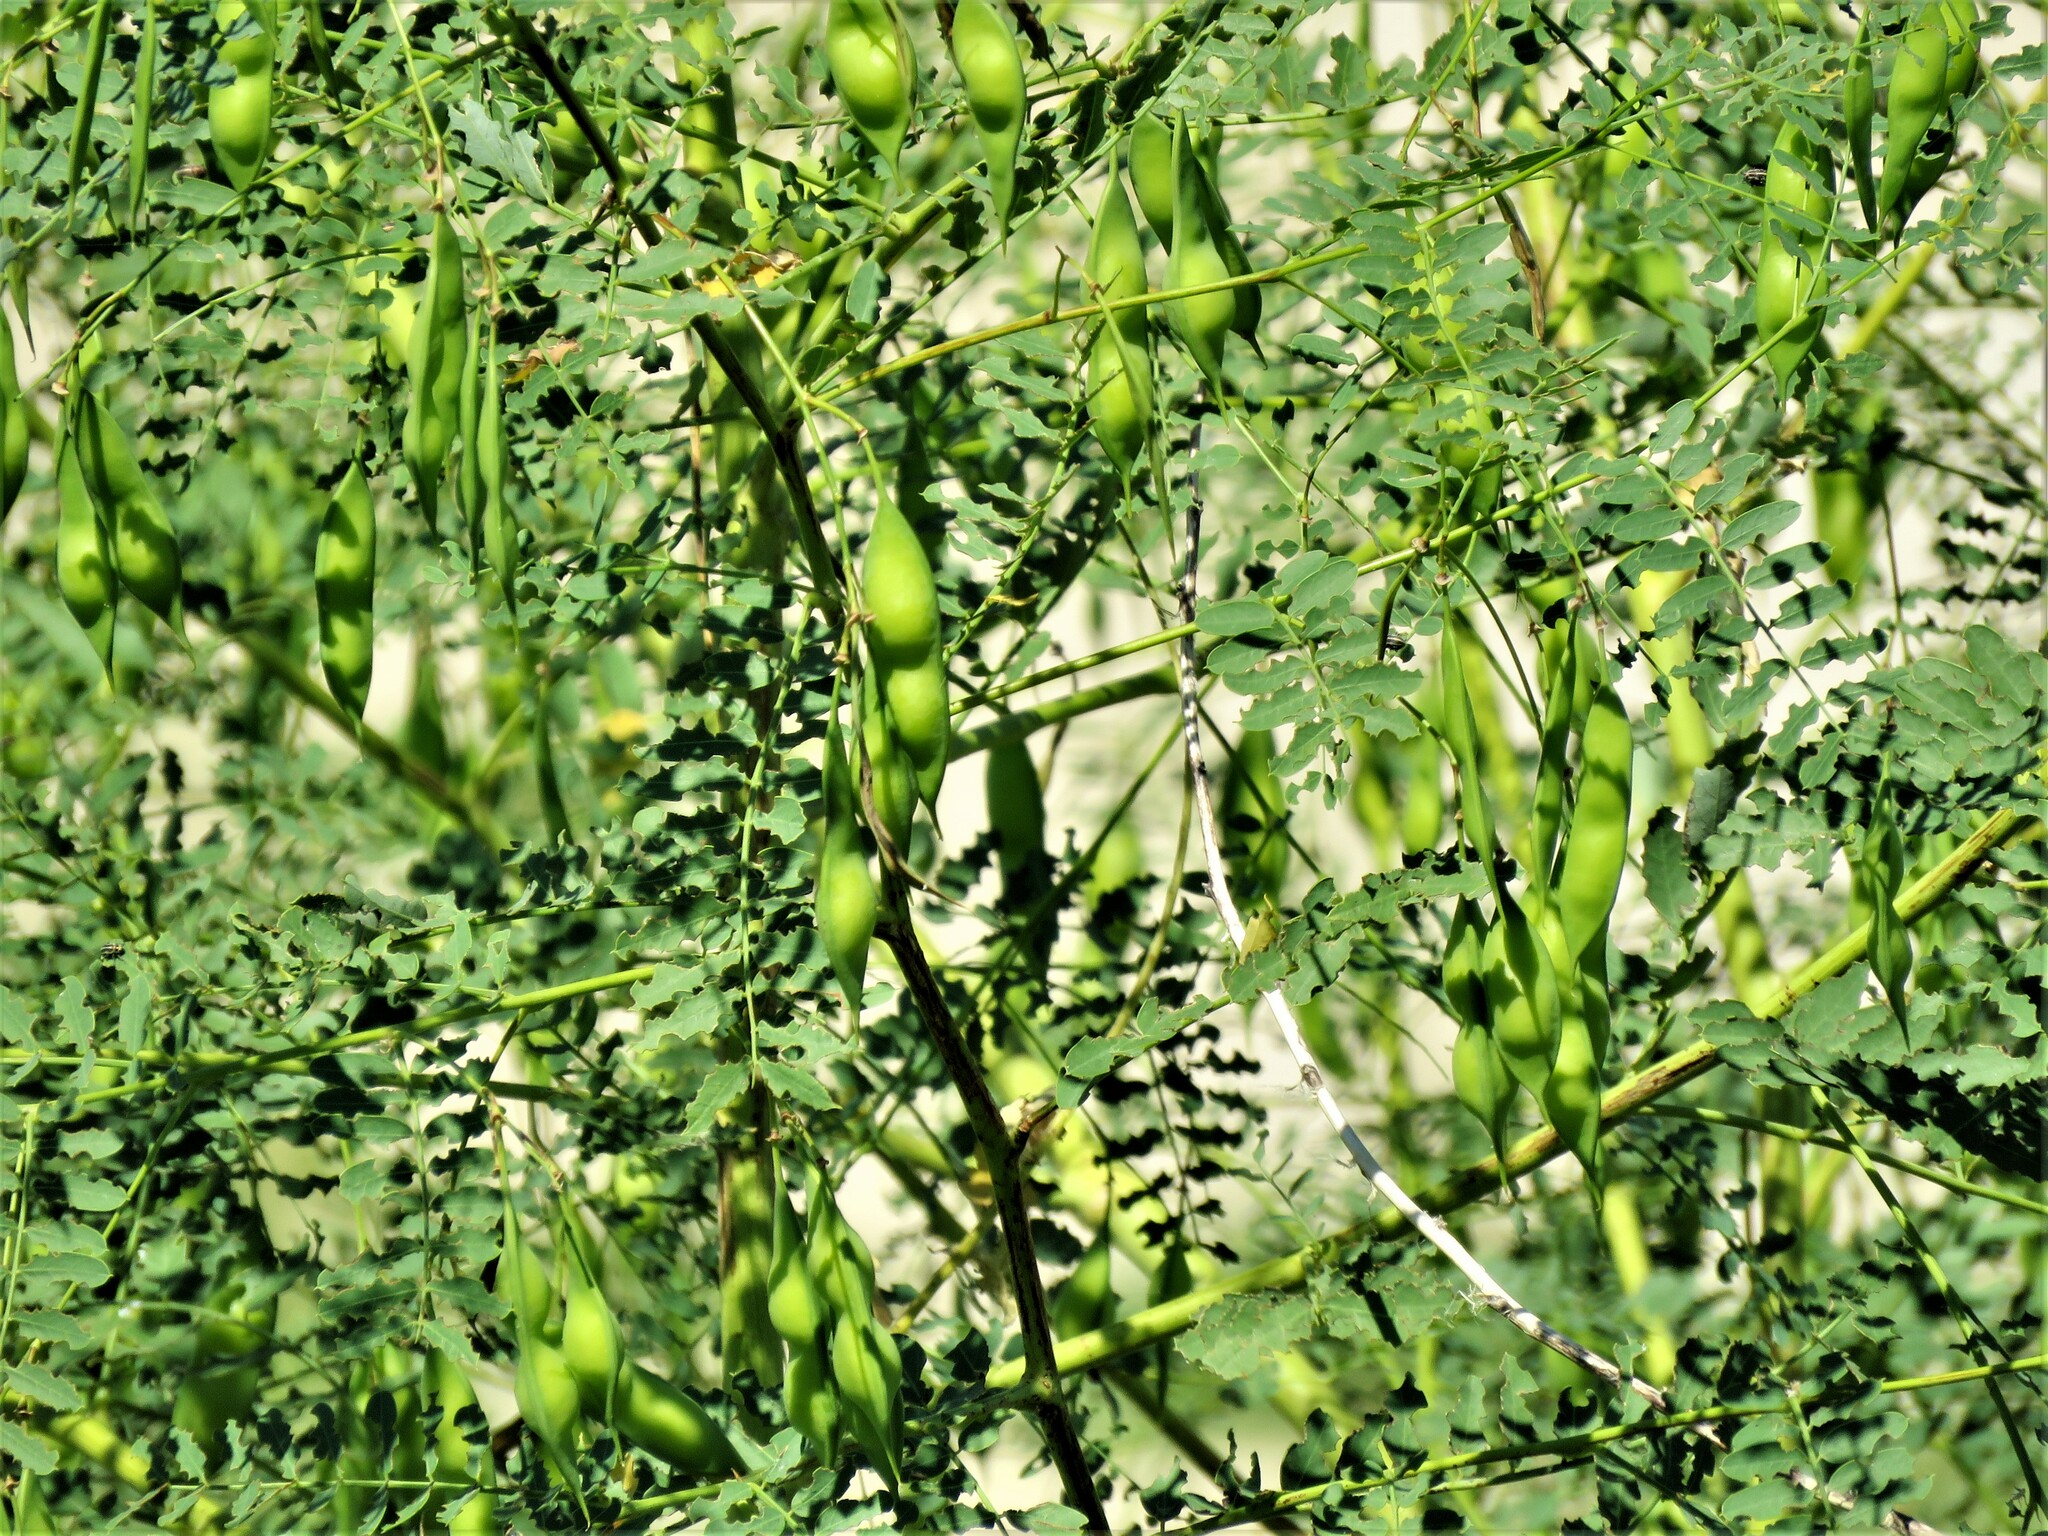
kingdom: Plantae
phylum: Tracheophyta
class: Magnoliopsida
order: Fabales
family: Fabaceae
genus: Sesbania
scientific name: Sesbania vesicaria
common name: Bagpod
